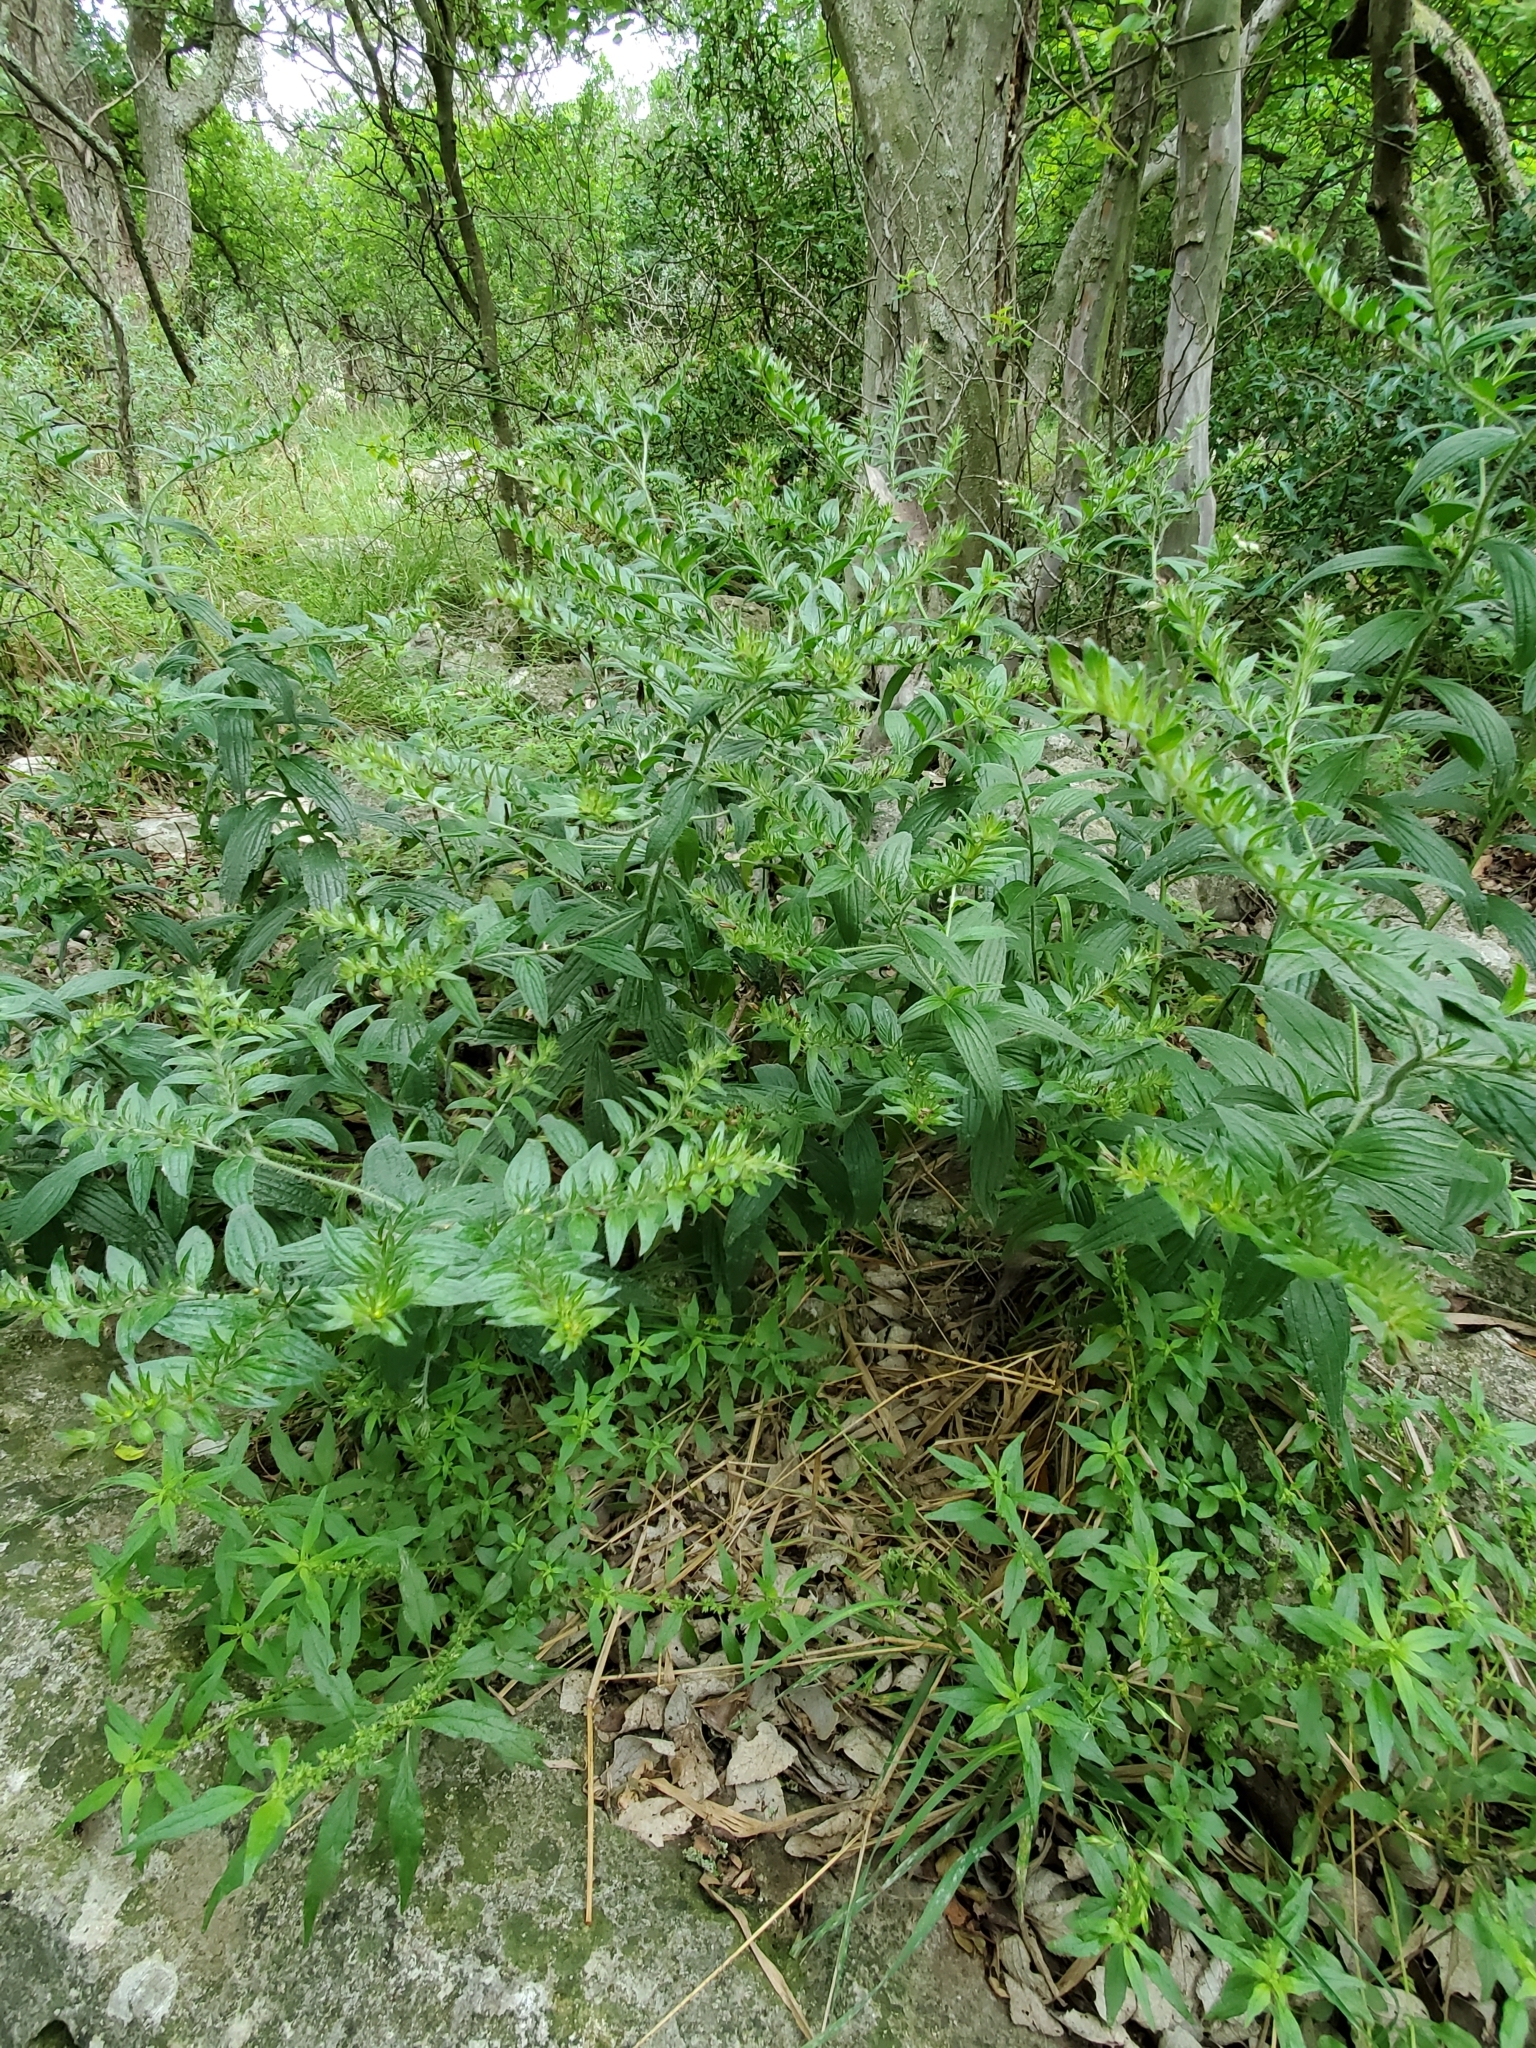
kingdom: Plantae
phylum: Tracheophyta
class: Magnoliopsida
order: Boraginales
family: Boraginaceae
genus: Lithospermum
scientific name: Lithospermum caroliniense
